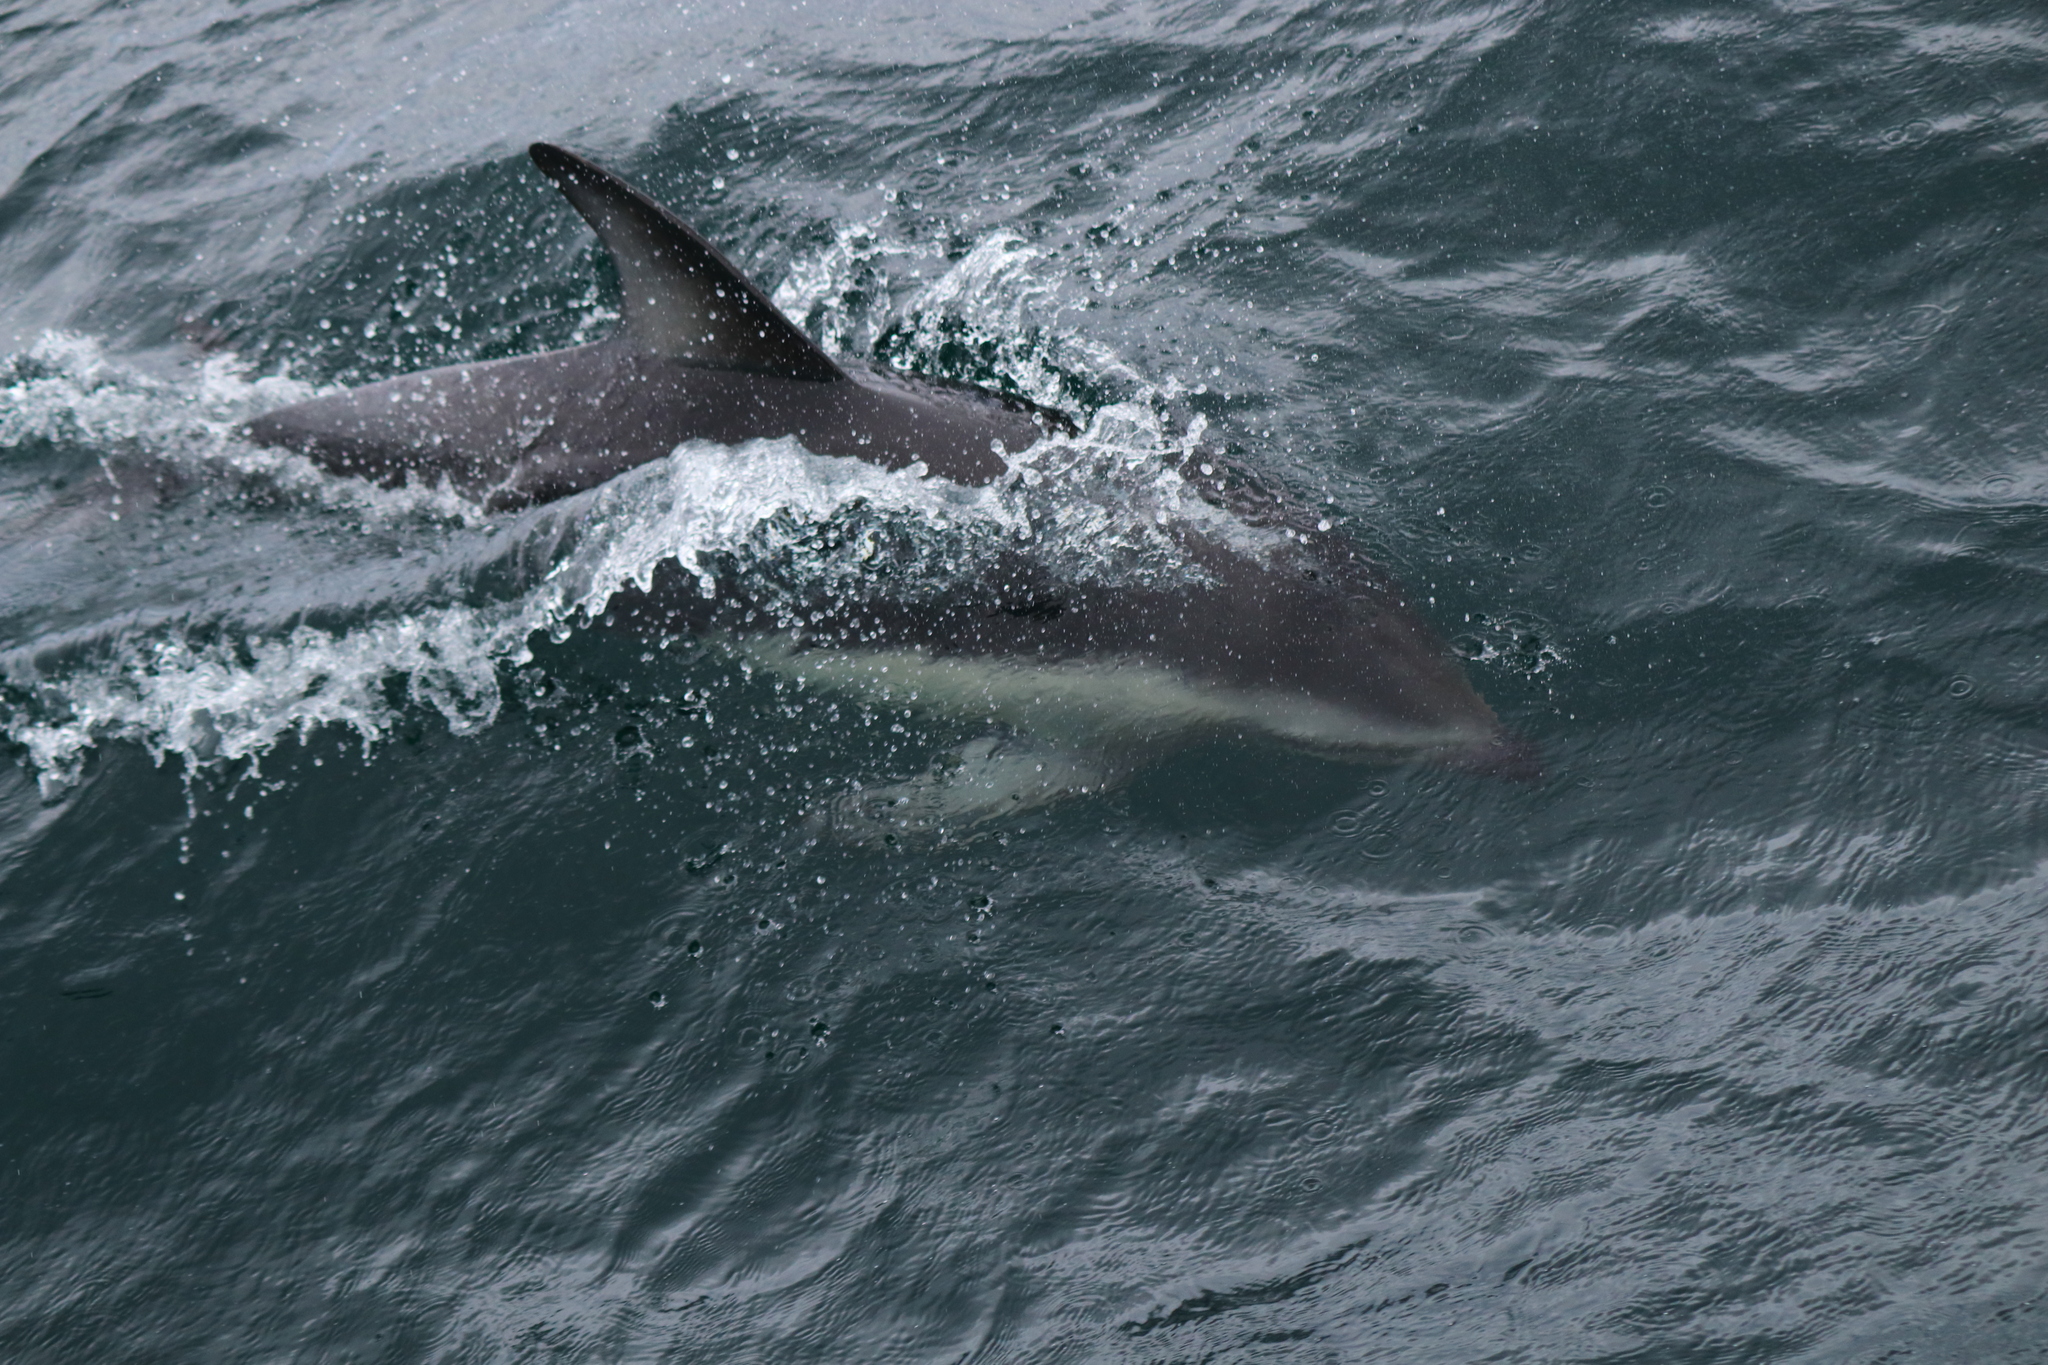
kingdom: Animalia
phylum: Chordata
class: Mammalia
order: Cetacea
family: Delphinidae
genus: Lagenorhynchus
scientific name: Lagenorhynchus obscurus
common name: Dusky dolphin
